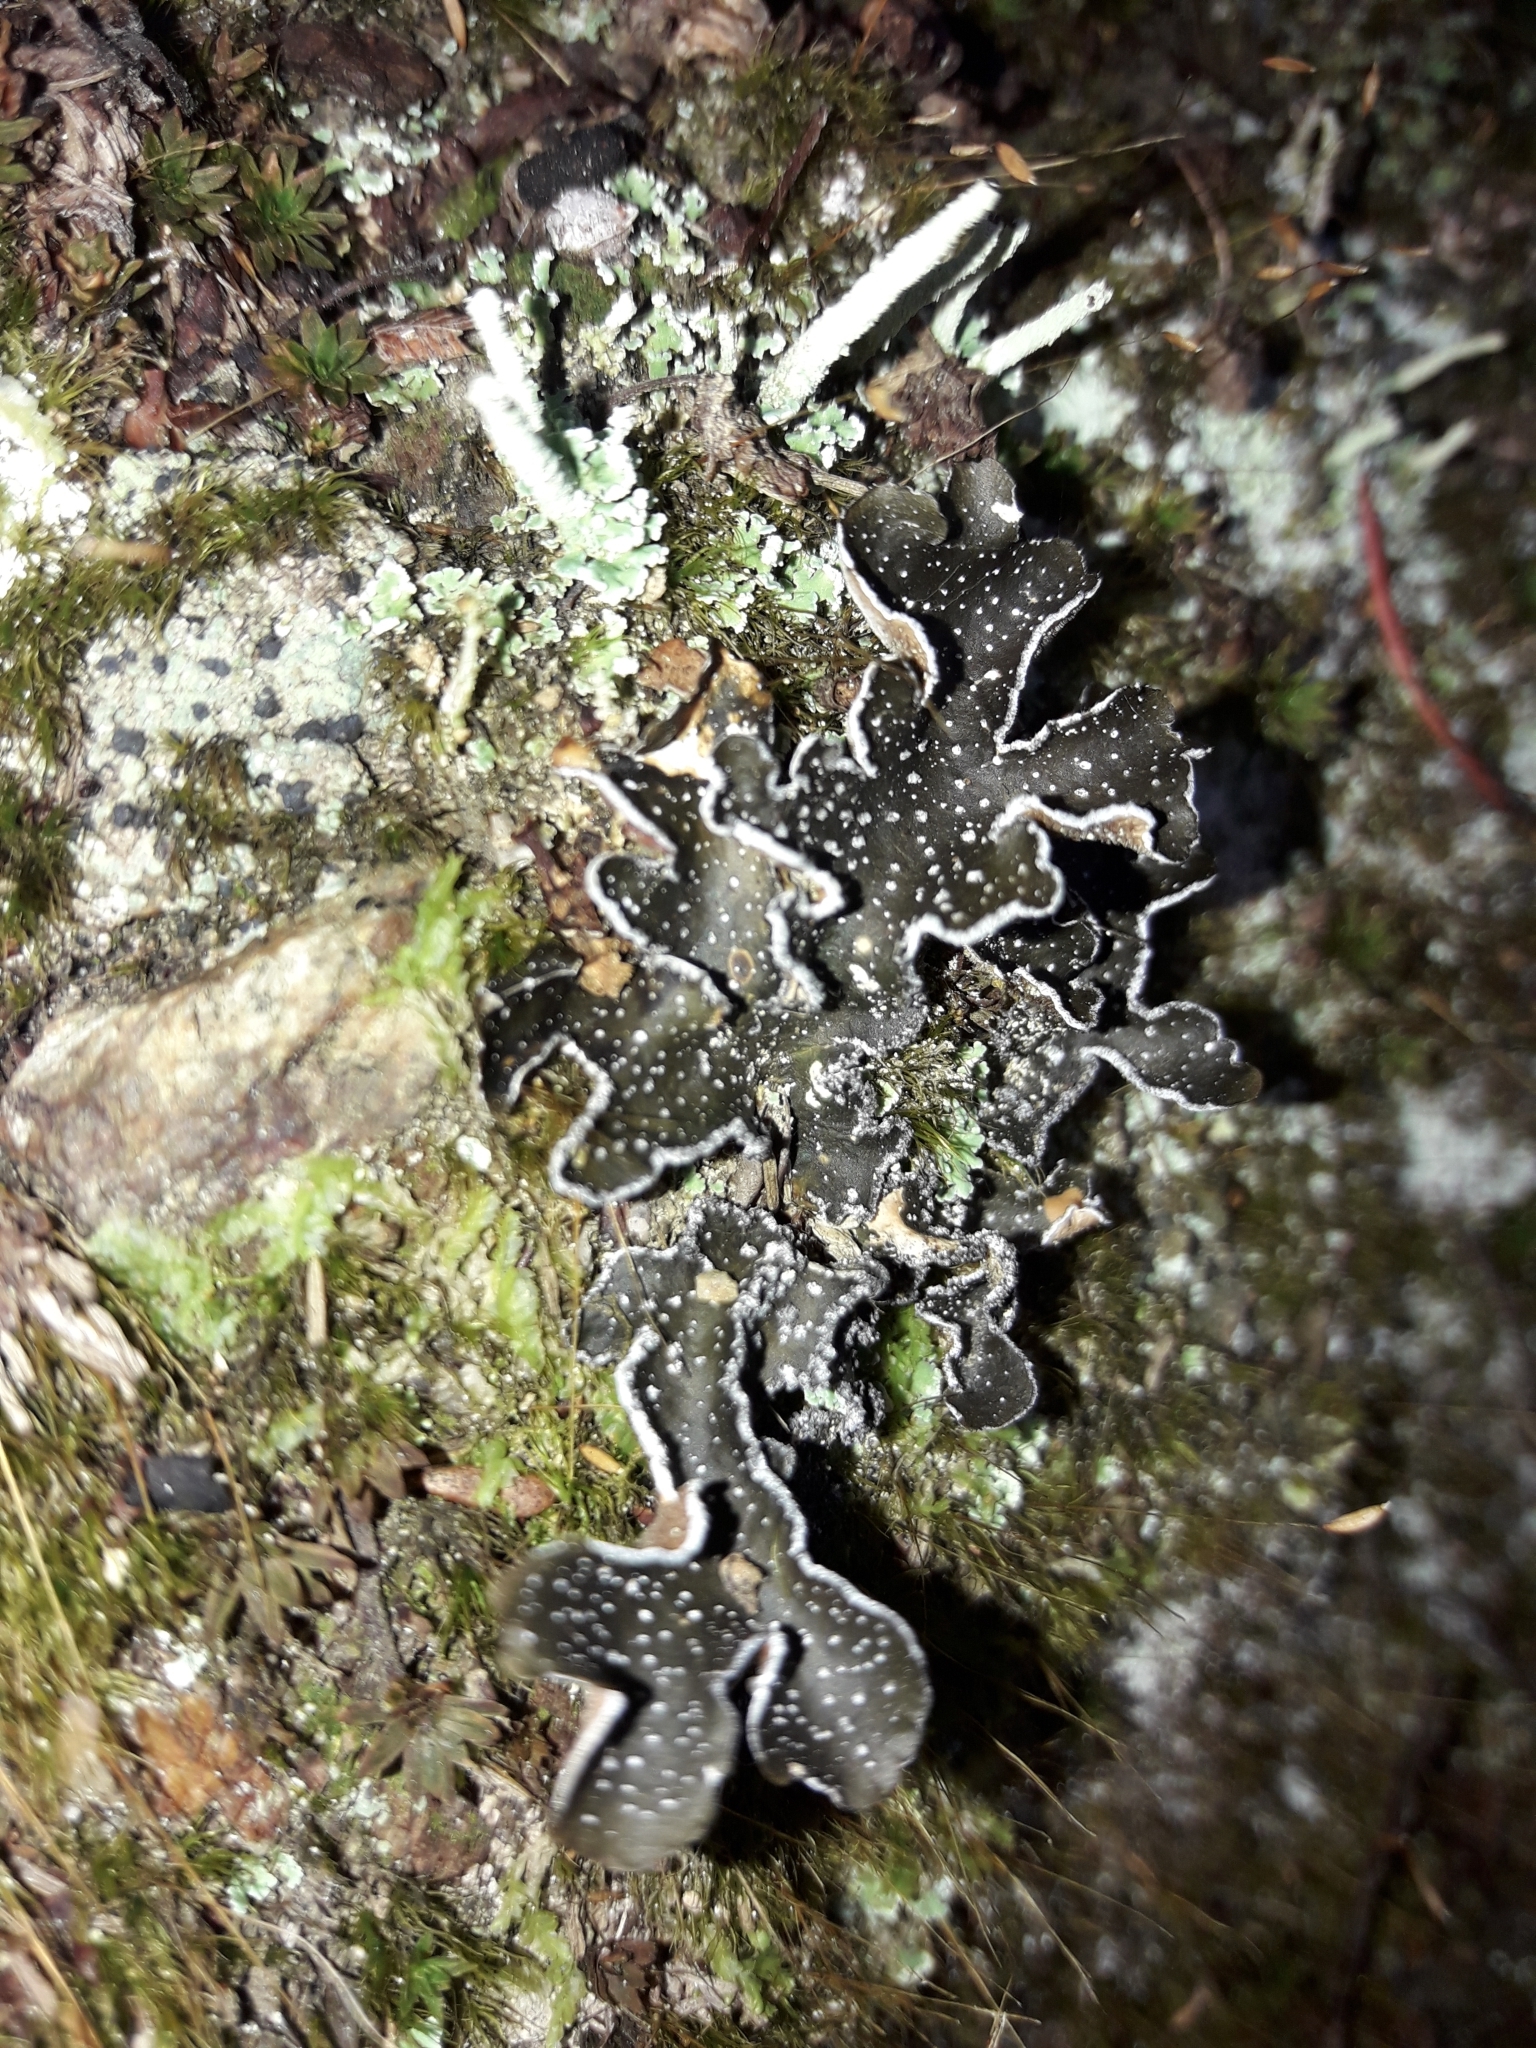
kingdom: Fungi
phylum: Ascomycota
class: Lecanoromycetes
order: Peltigerales
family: Lobariaceae
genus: Pseudocyphellaria
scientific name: Pseudocyphellaria intricata
